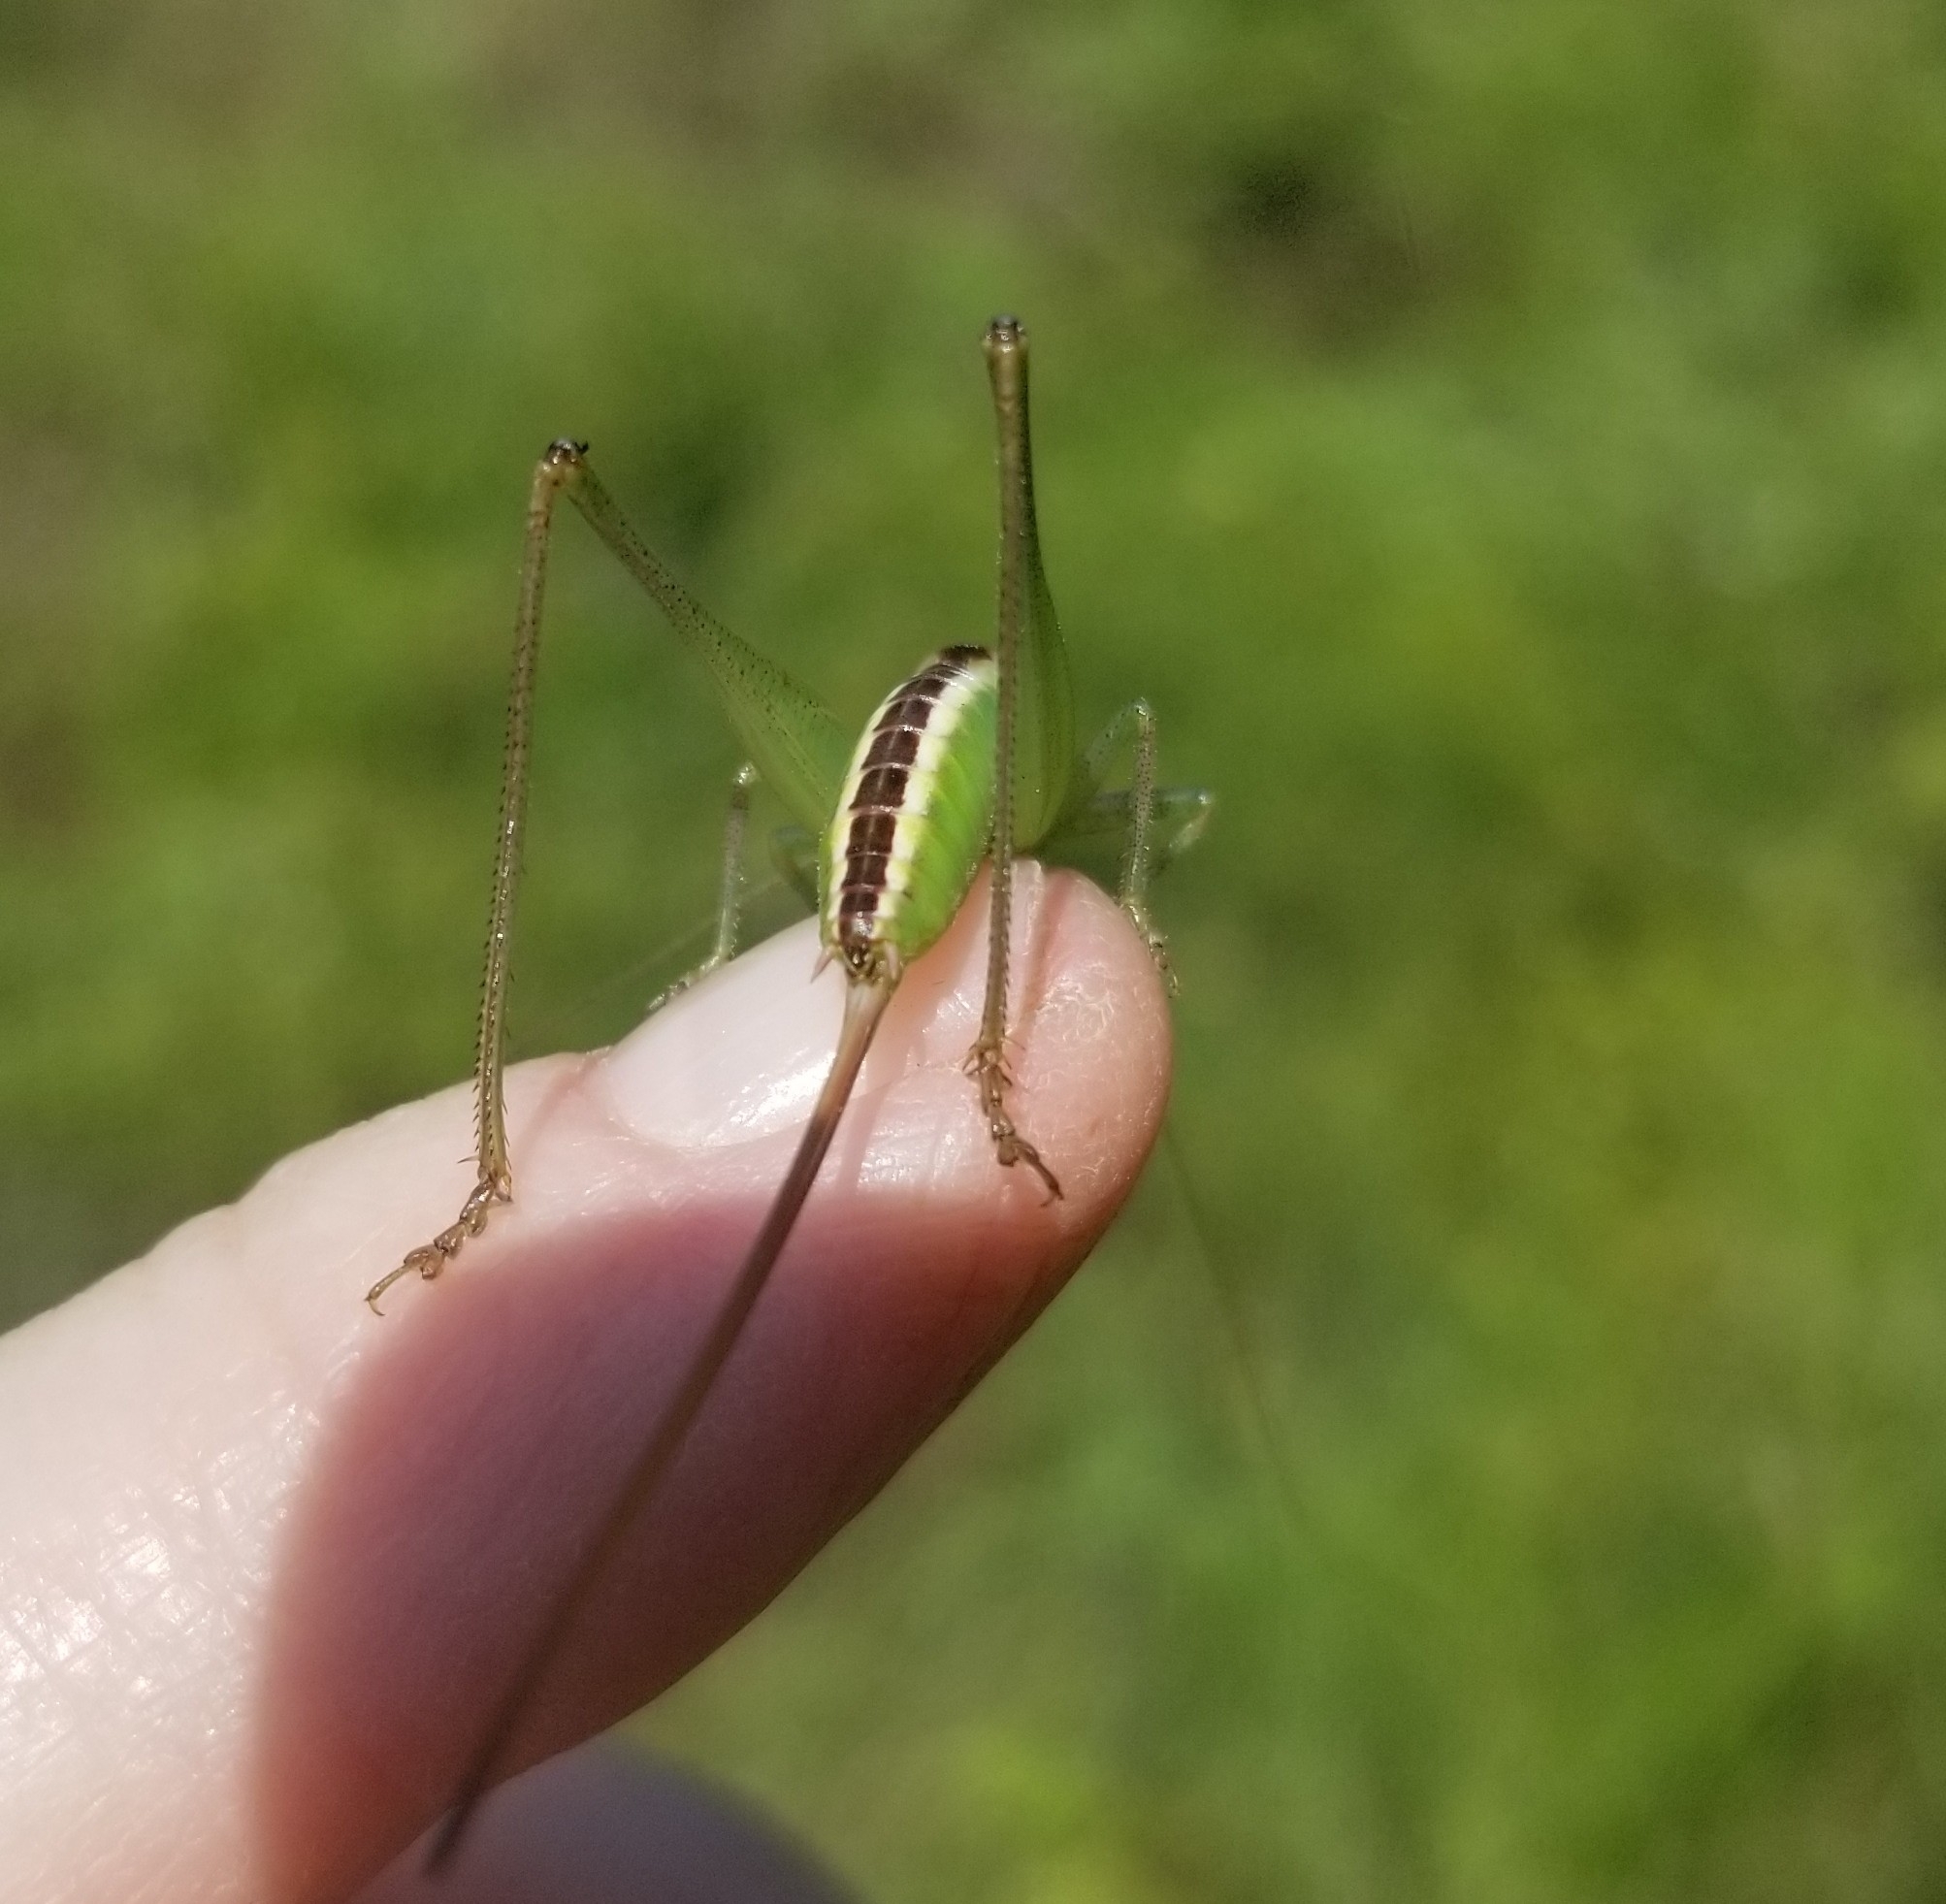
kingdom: Animalia
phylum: Arthropoda
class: Insecta
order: Orthoptera
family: Tettigoniidae
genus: Conocephalus
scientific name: Conocephalus strictus
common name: Straight-lanced katydid
